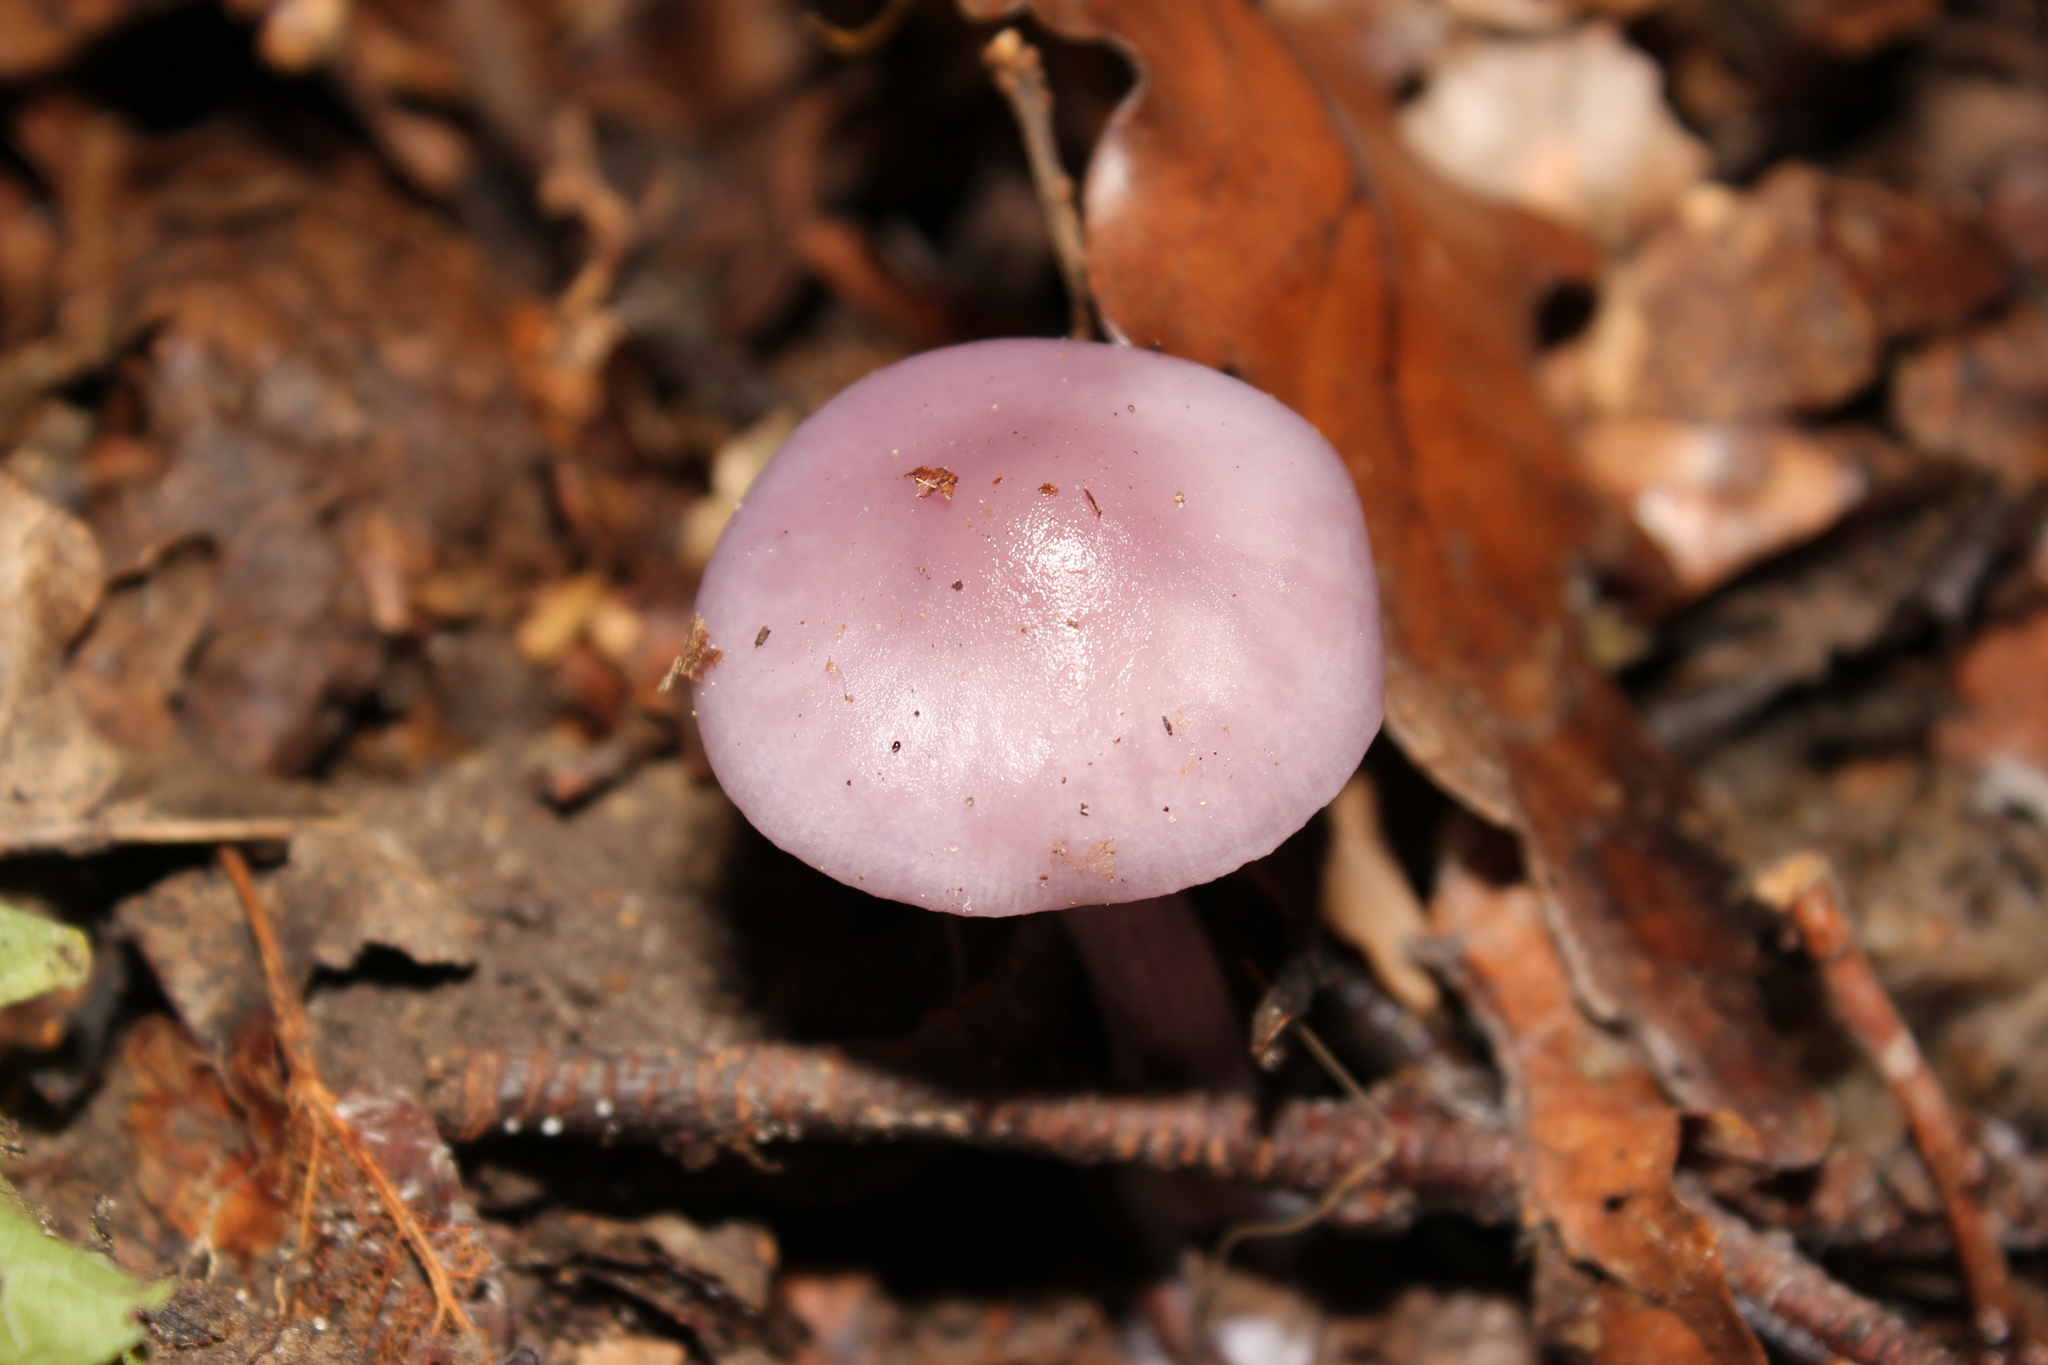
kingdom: Fungi
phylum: Basidiomycota
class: Agaricomycetes
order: Agaricales
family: Tricholomataceae
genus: Collybia
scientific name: Collybia
